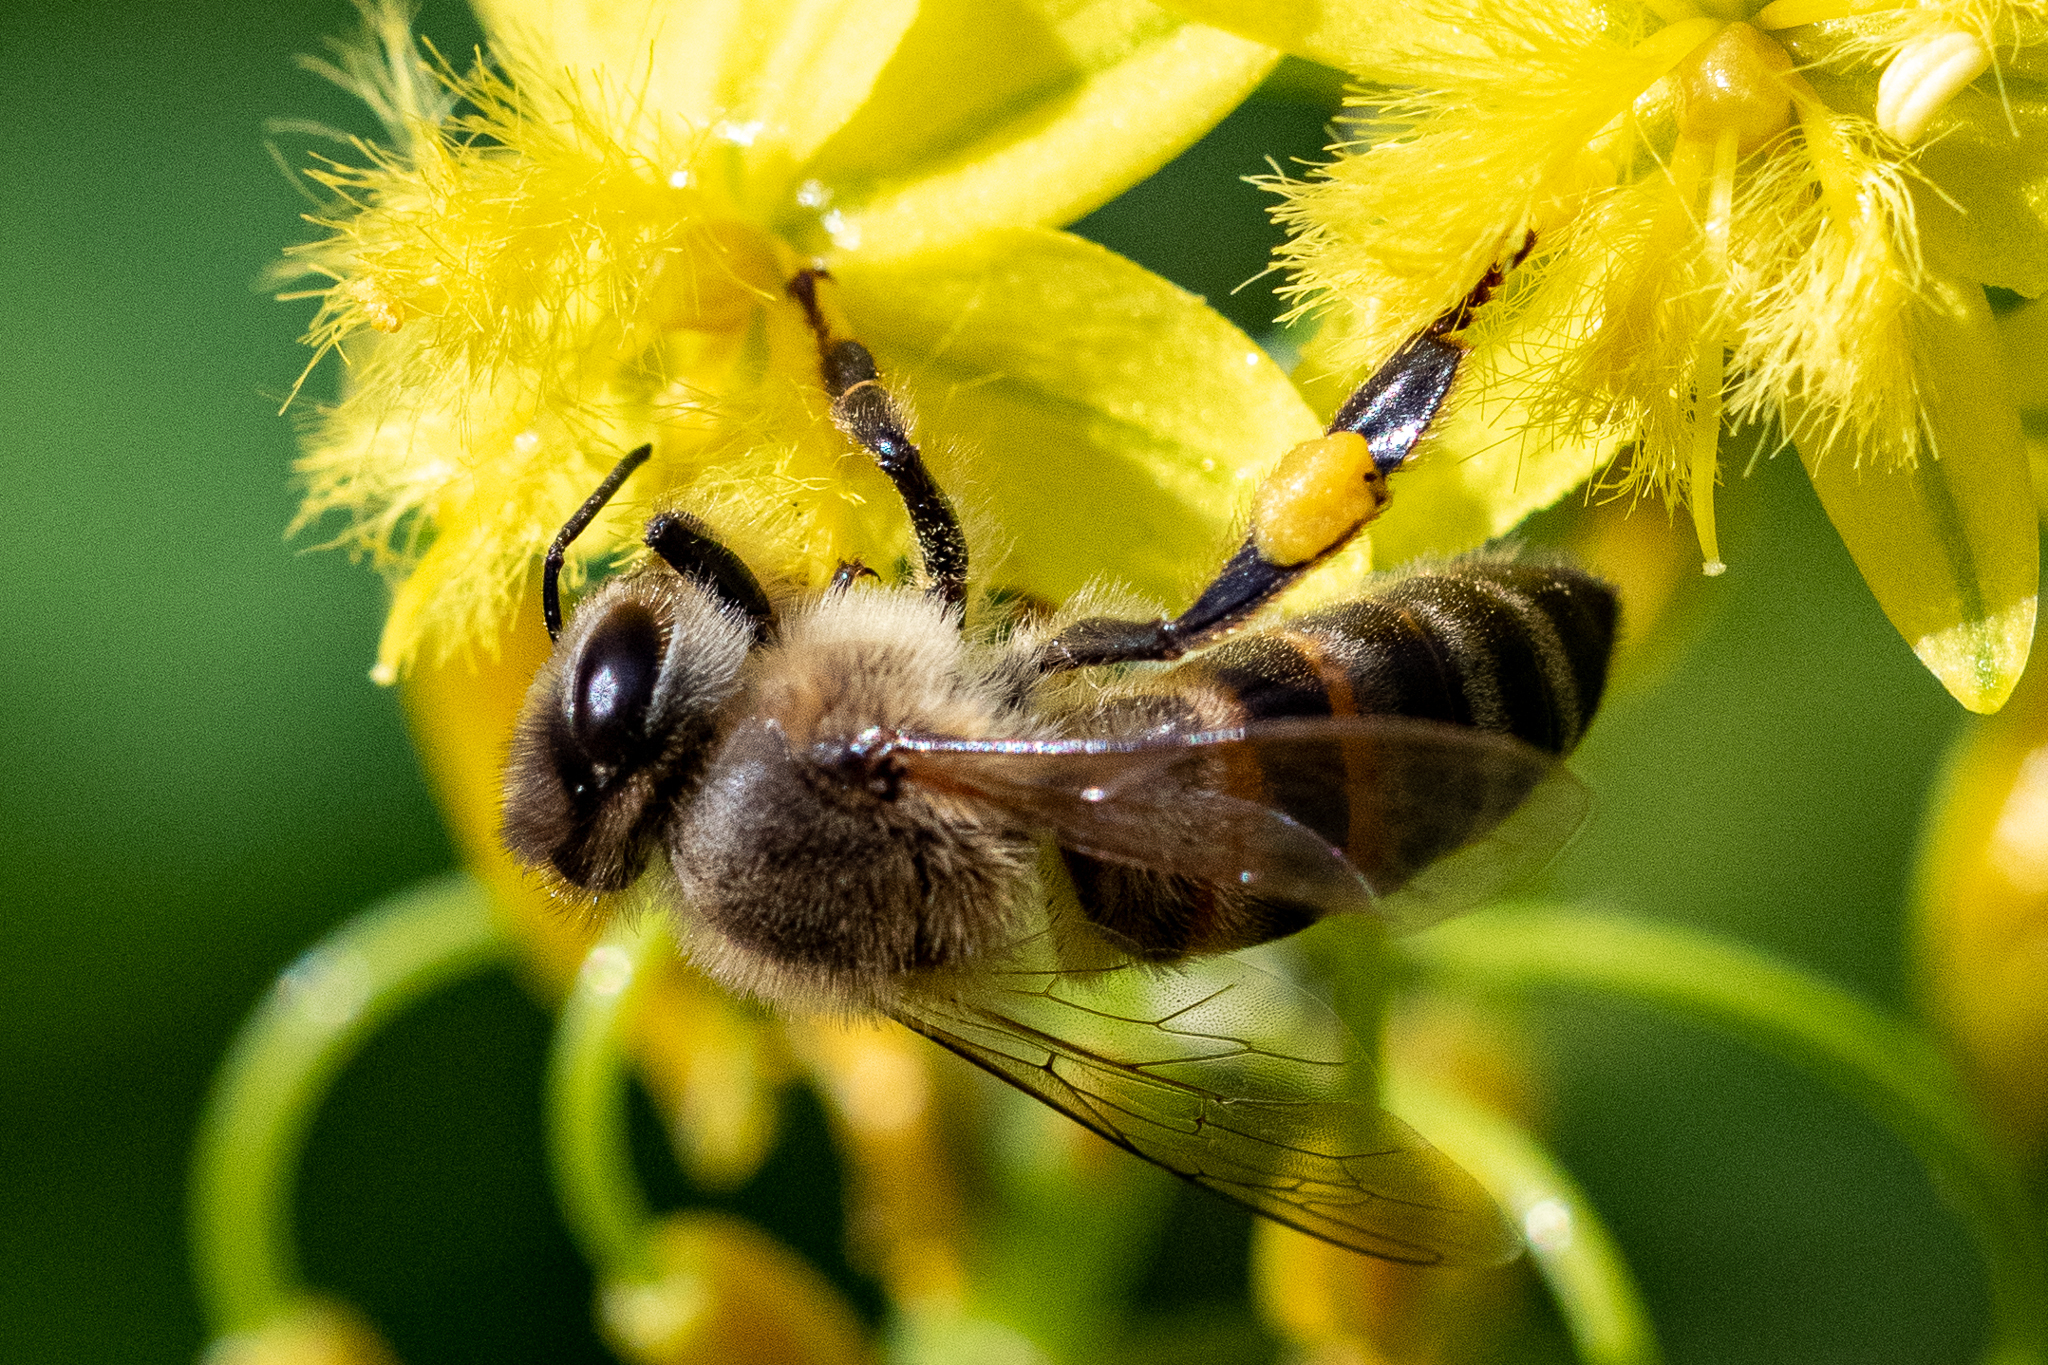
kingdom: Animalia
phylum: Arthropoda
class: Insecta
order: Hymenoptera
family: Apidae
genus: Apis
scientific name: Apis mellifera
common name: Honey bee
